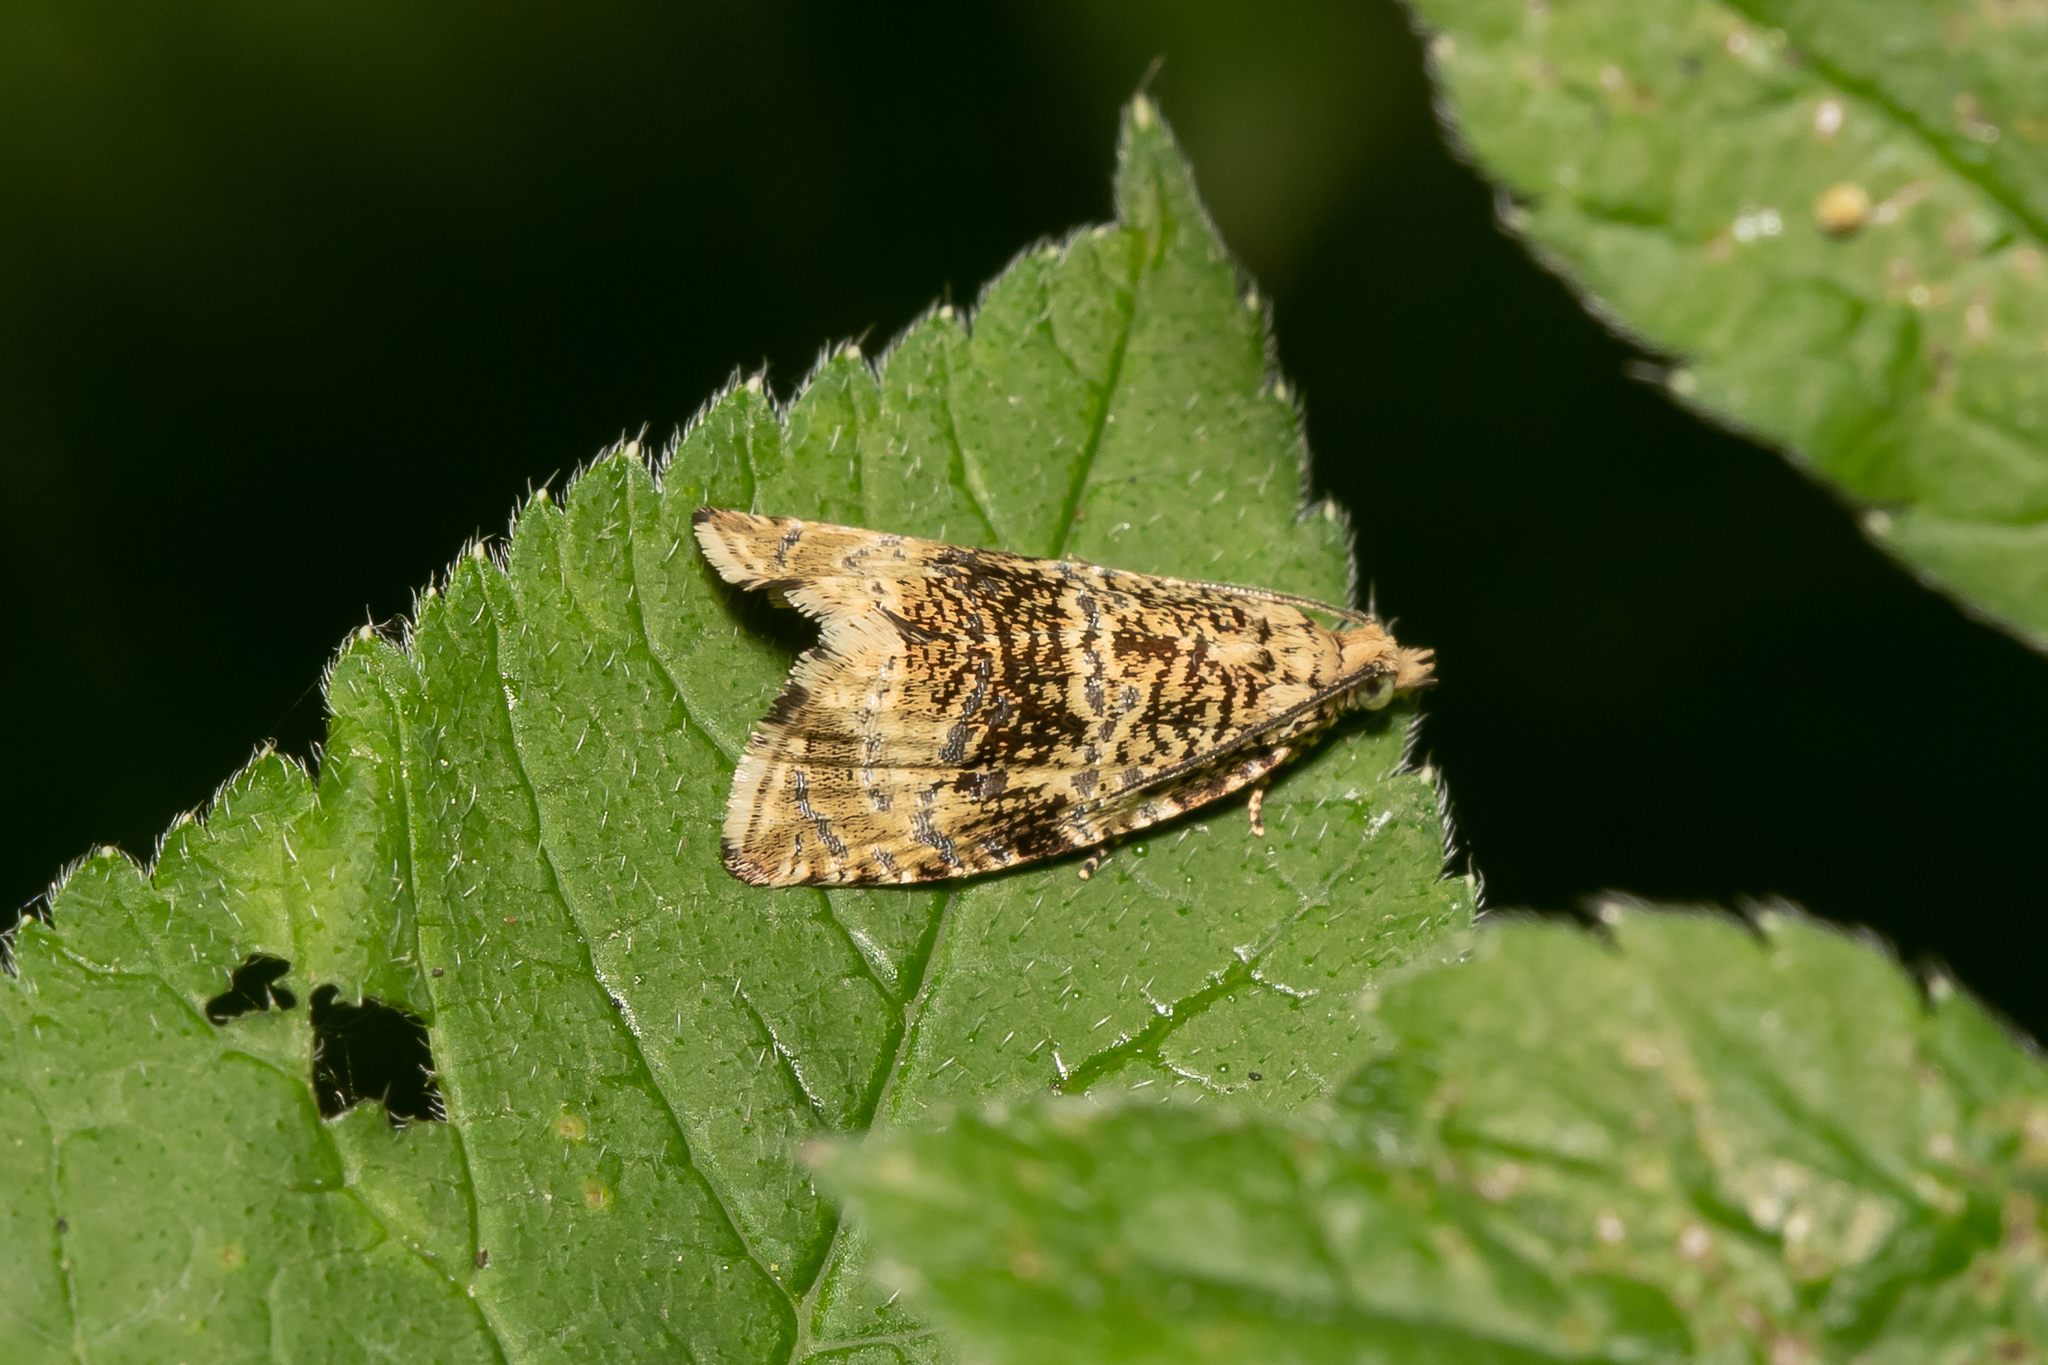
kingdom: Animalia
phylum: Arthropoda
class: Insecta
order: Lepidoptera
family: Tortricidae
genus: Syricoris
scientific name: Syricoris lacunana
